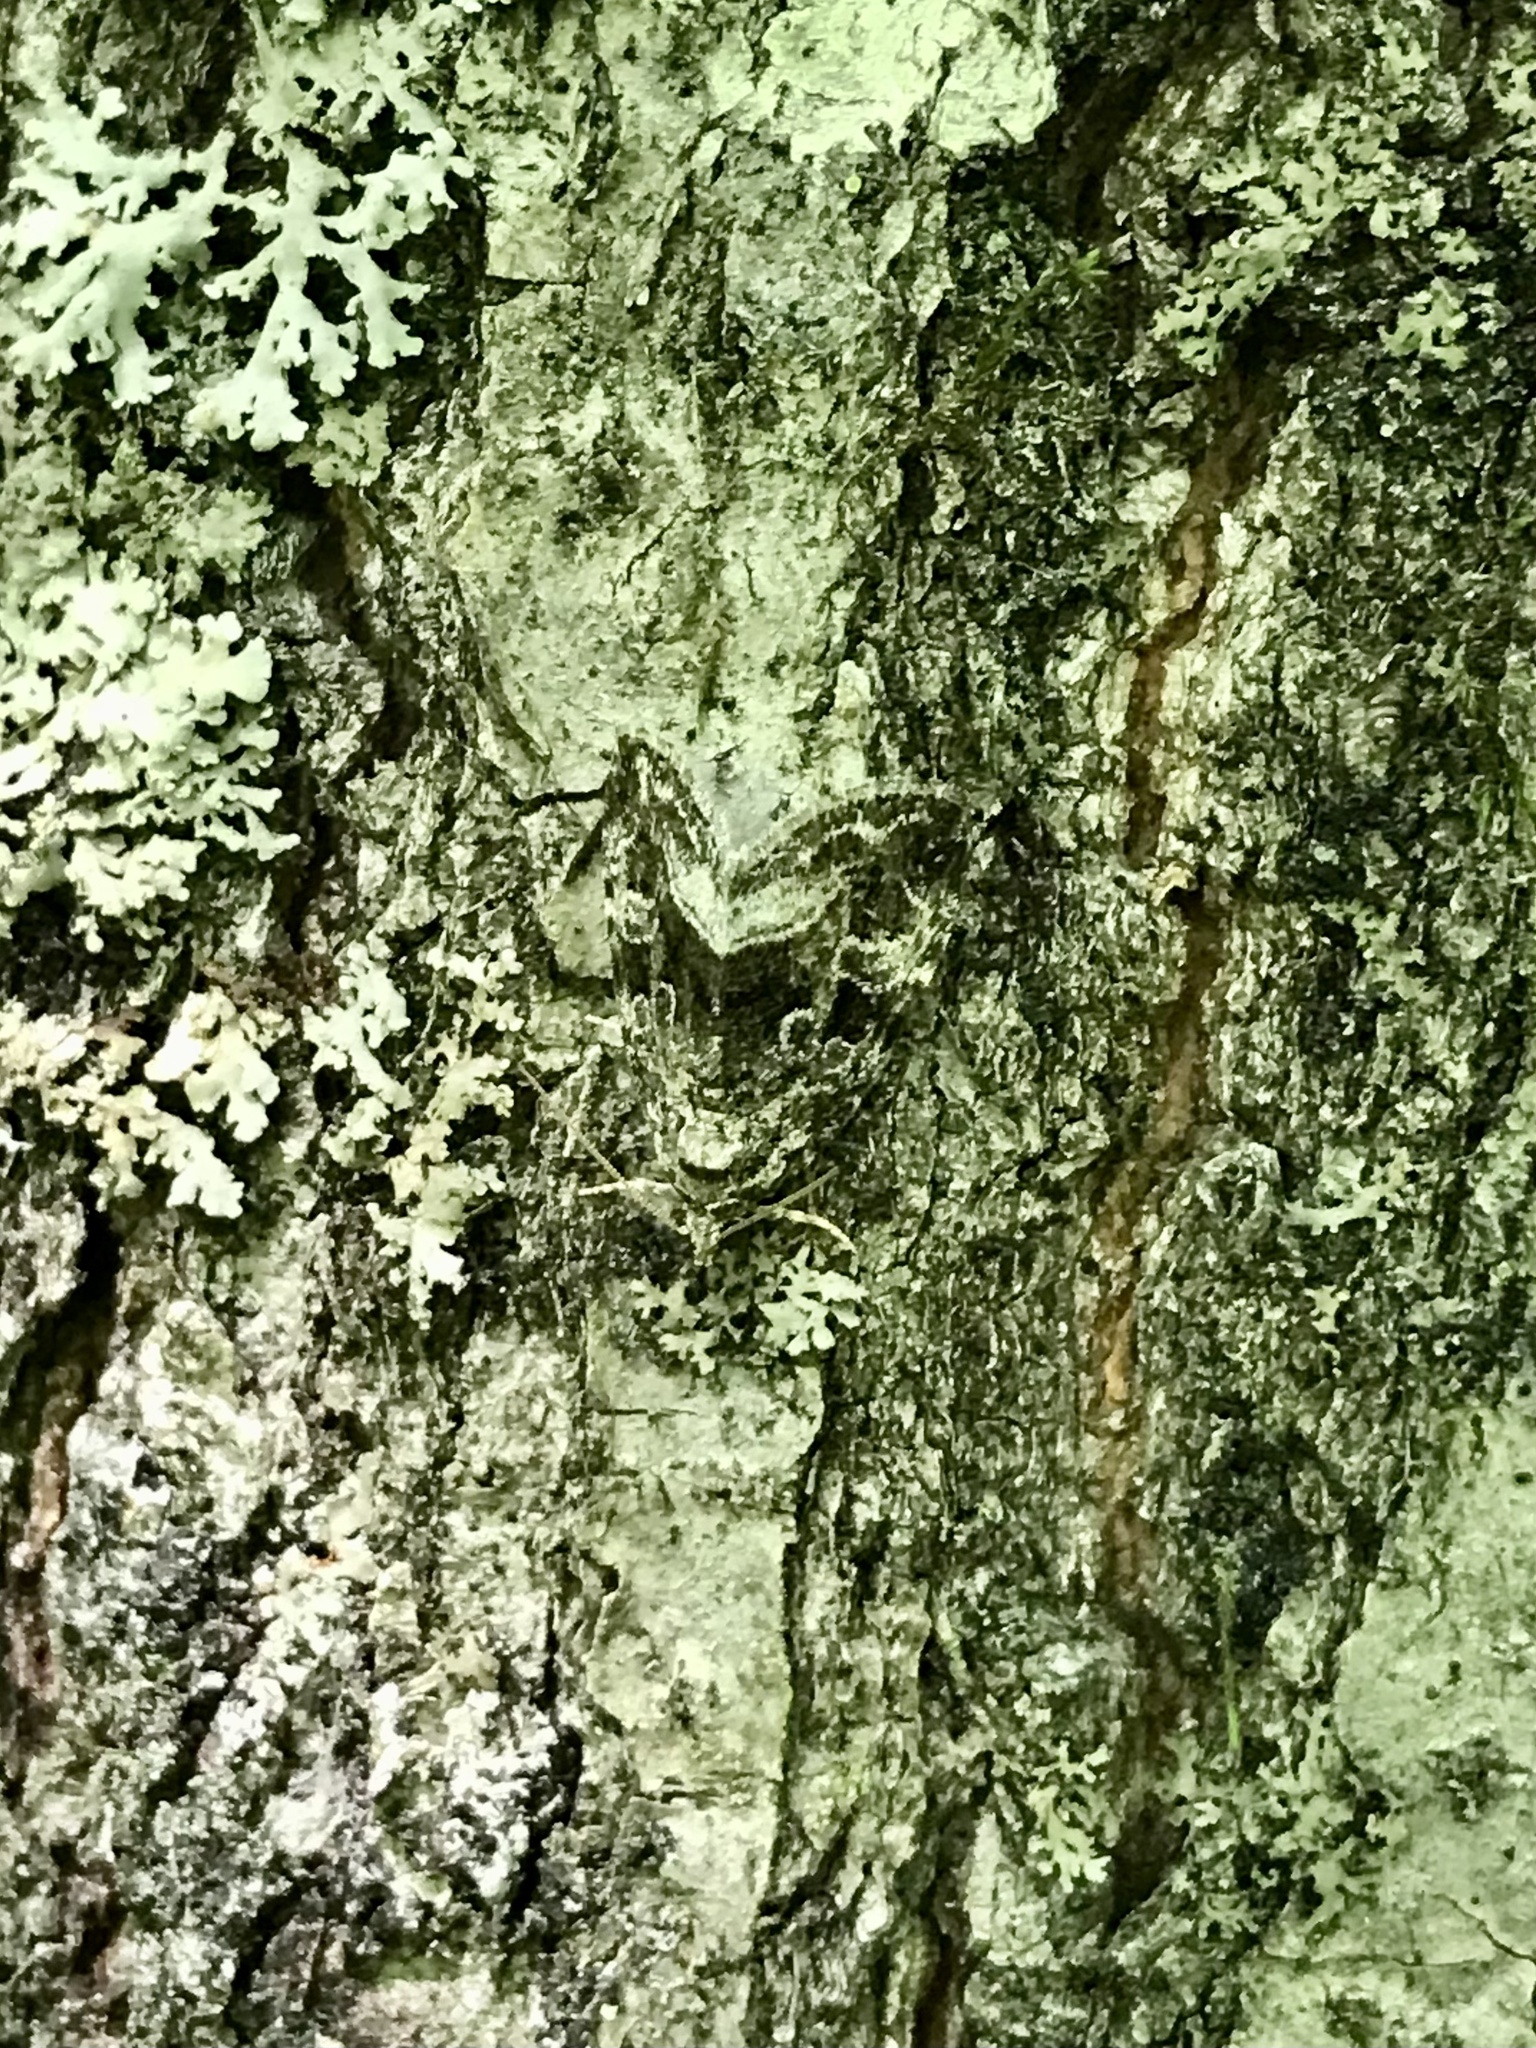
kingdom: Animalia
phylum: Arthropoda
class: Insecta
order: Lepidoptera
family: Noctuidae
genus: Protodeltote
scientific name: Protodeltote muscosula
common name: Large mossy glyph
